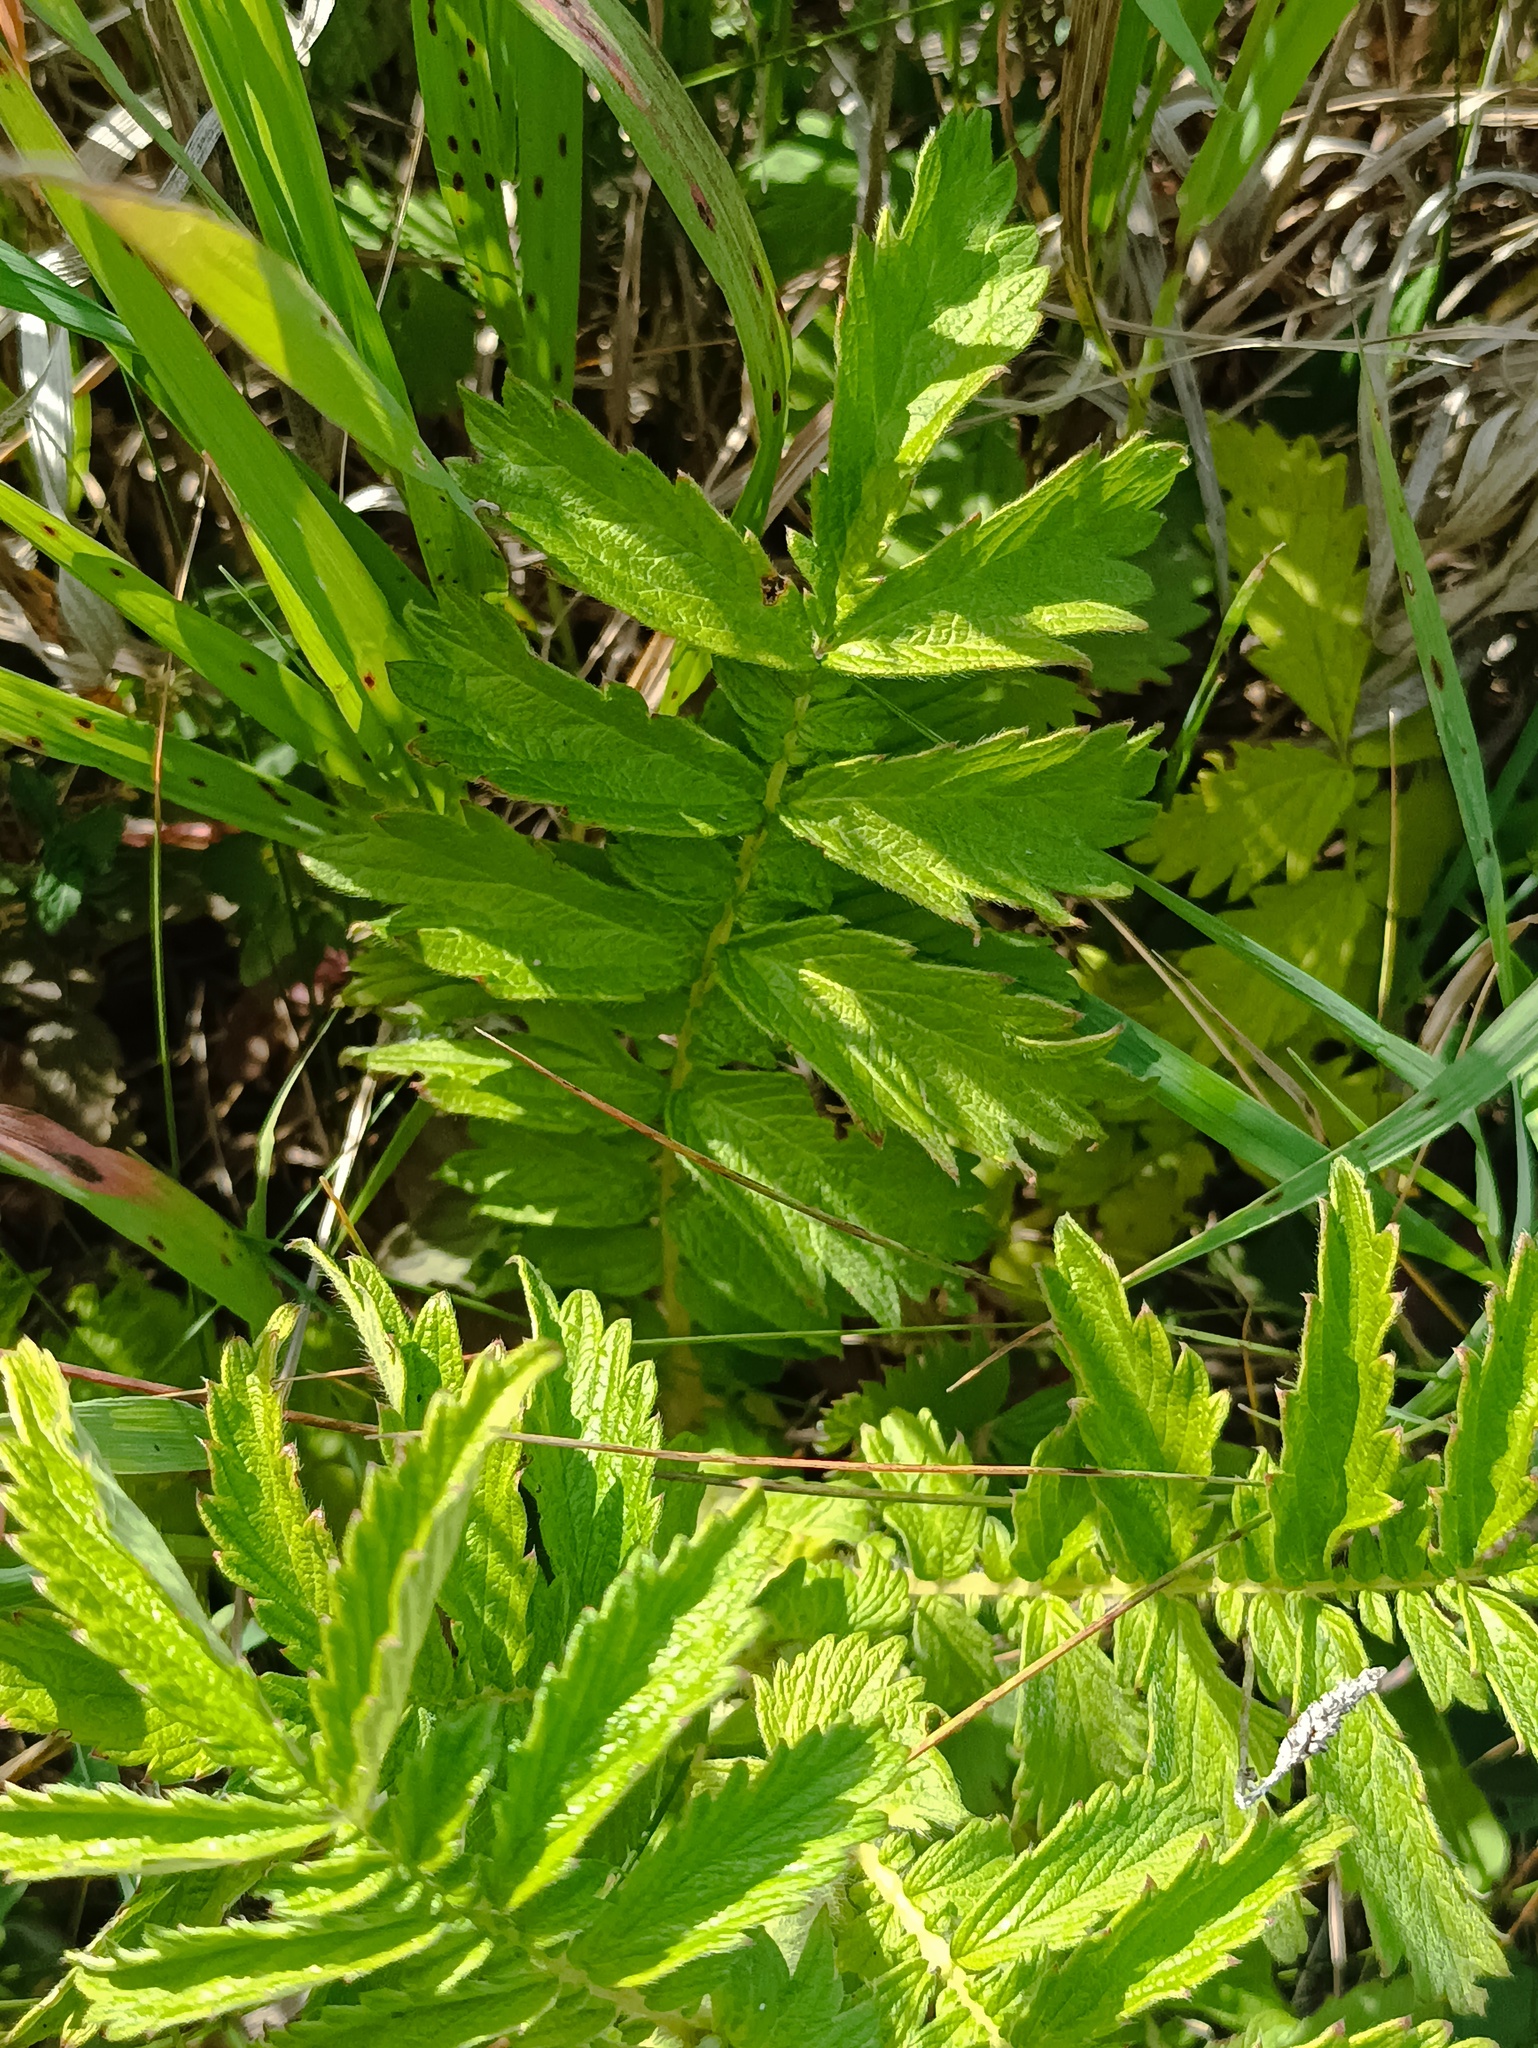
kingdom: Plantae
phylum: Tracheophyta
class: Magnoliopsida
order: Rosales
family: Rosaceae
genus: Agrimonia
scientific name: Agrimonia eupatoria
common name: Agrimony
